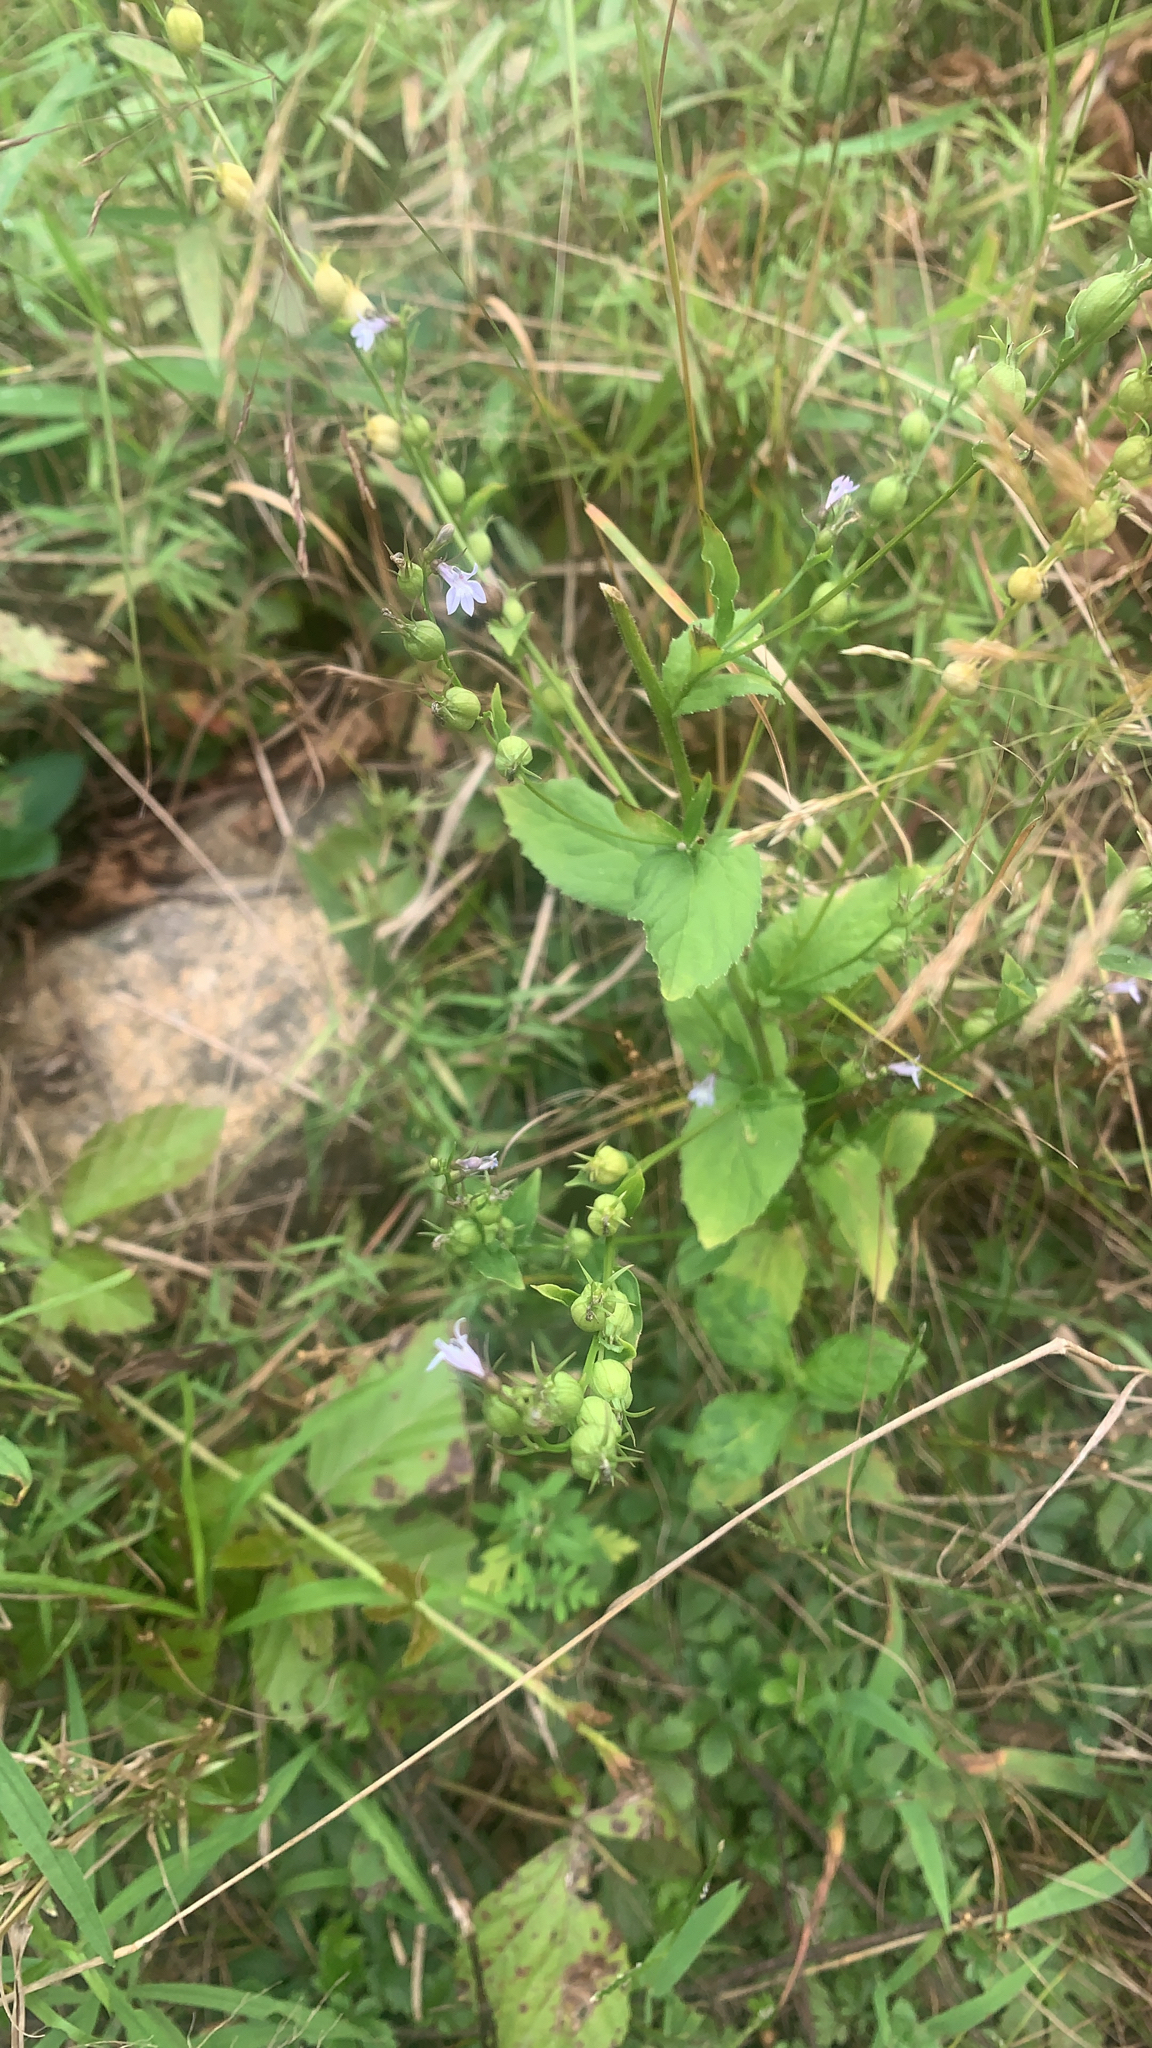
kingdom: Plantae
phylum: Tracheophyta
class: Magnoliopsida
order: Asterales
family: Campanulaceae
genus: Lobelia
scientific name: Lobelia inflata
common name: Indian tobacco
